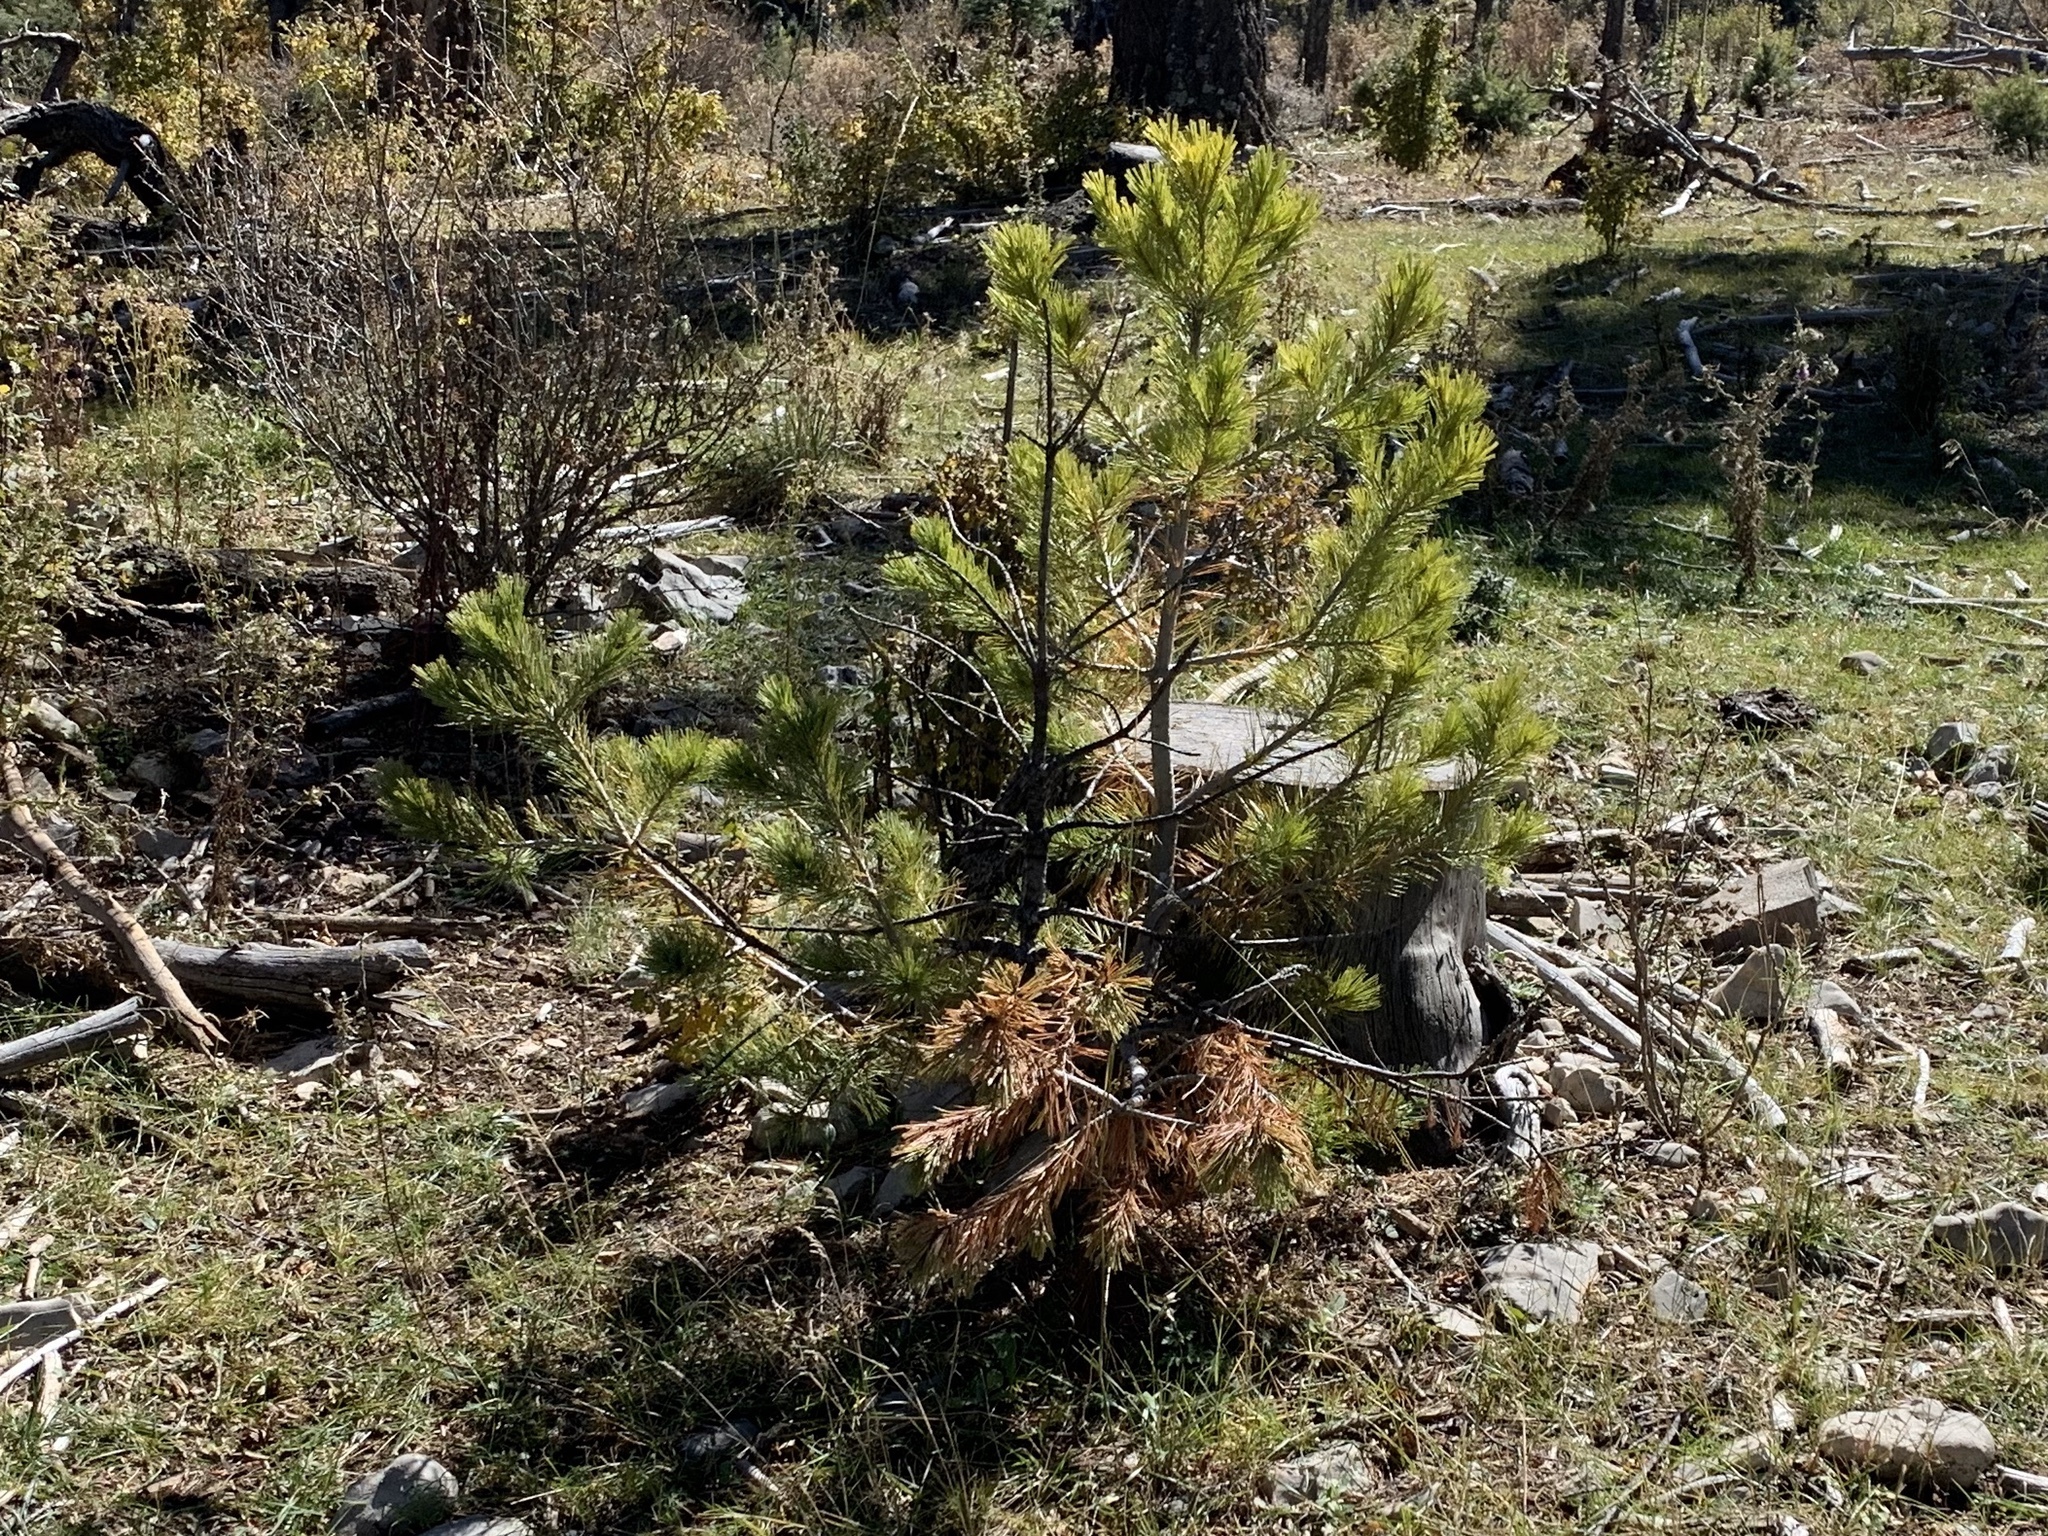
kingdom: Plantae
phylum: Tracheophyta
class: Pinopsida
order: Pinales
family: Pinaceae
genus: Pinus
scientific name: Pinus strobiformis
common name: Southwestern white pine
